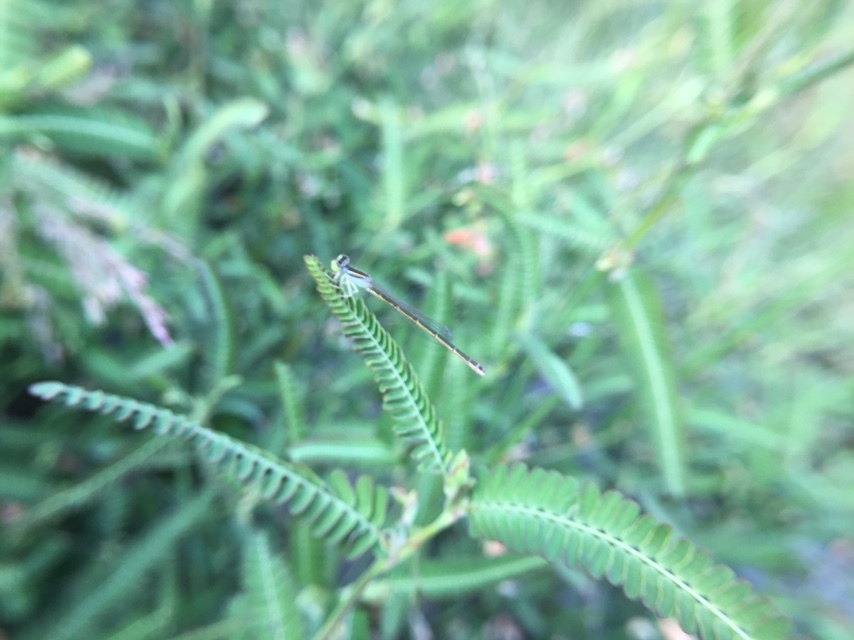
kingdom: Animalia
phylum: Arthropoda
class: Insecta
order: Odonata
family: Coenagrionidae
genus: Ischnura
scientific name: Ischnura rubilio
